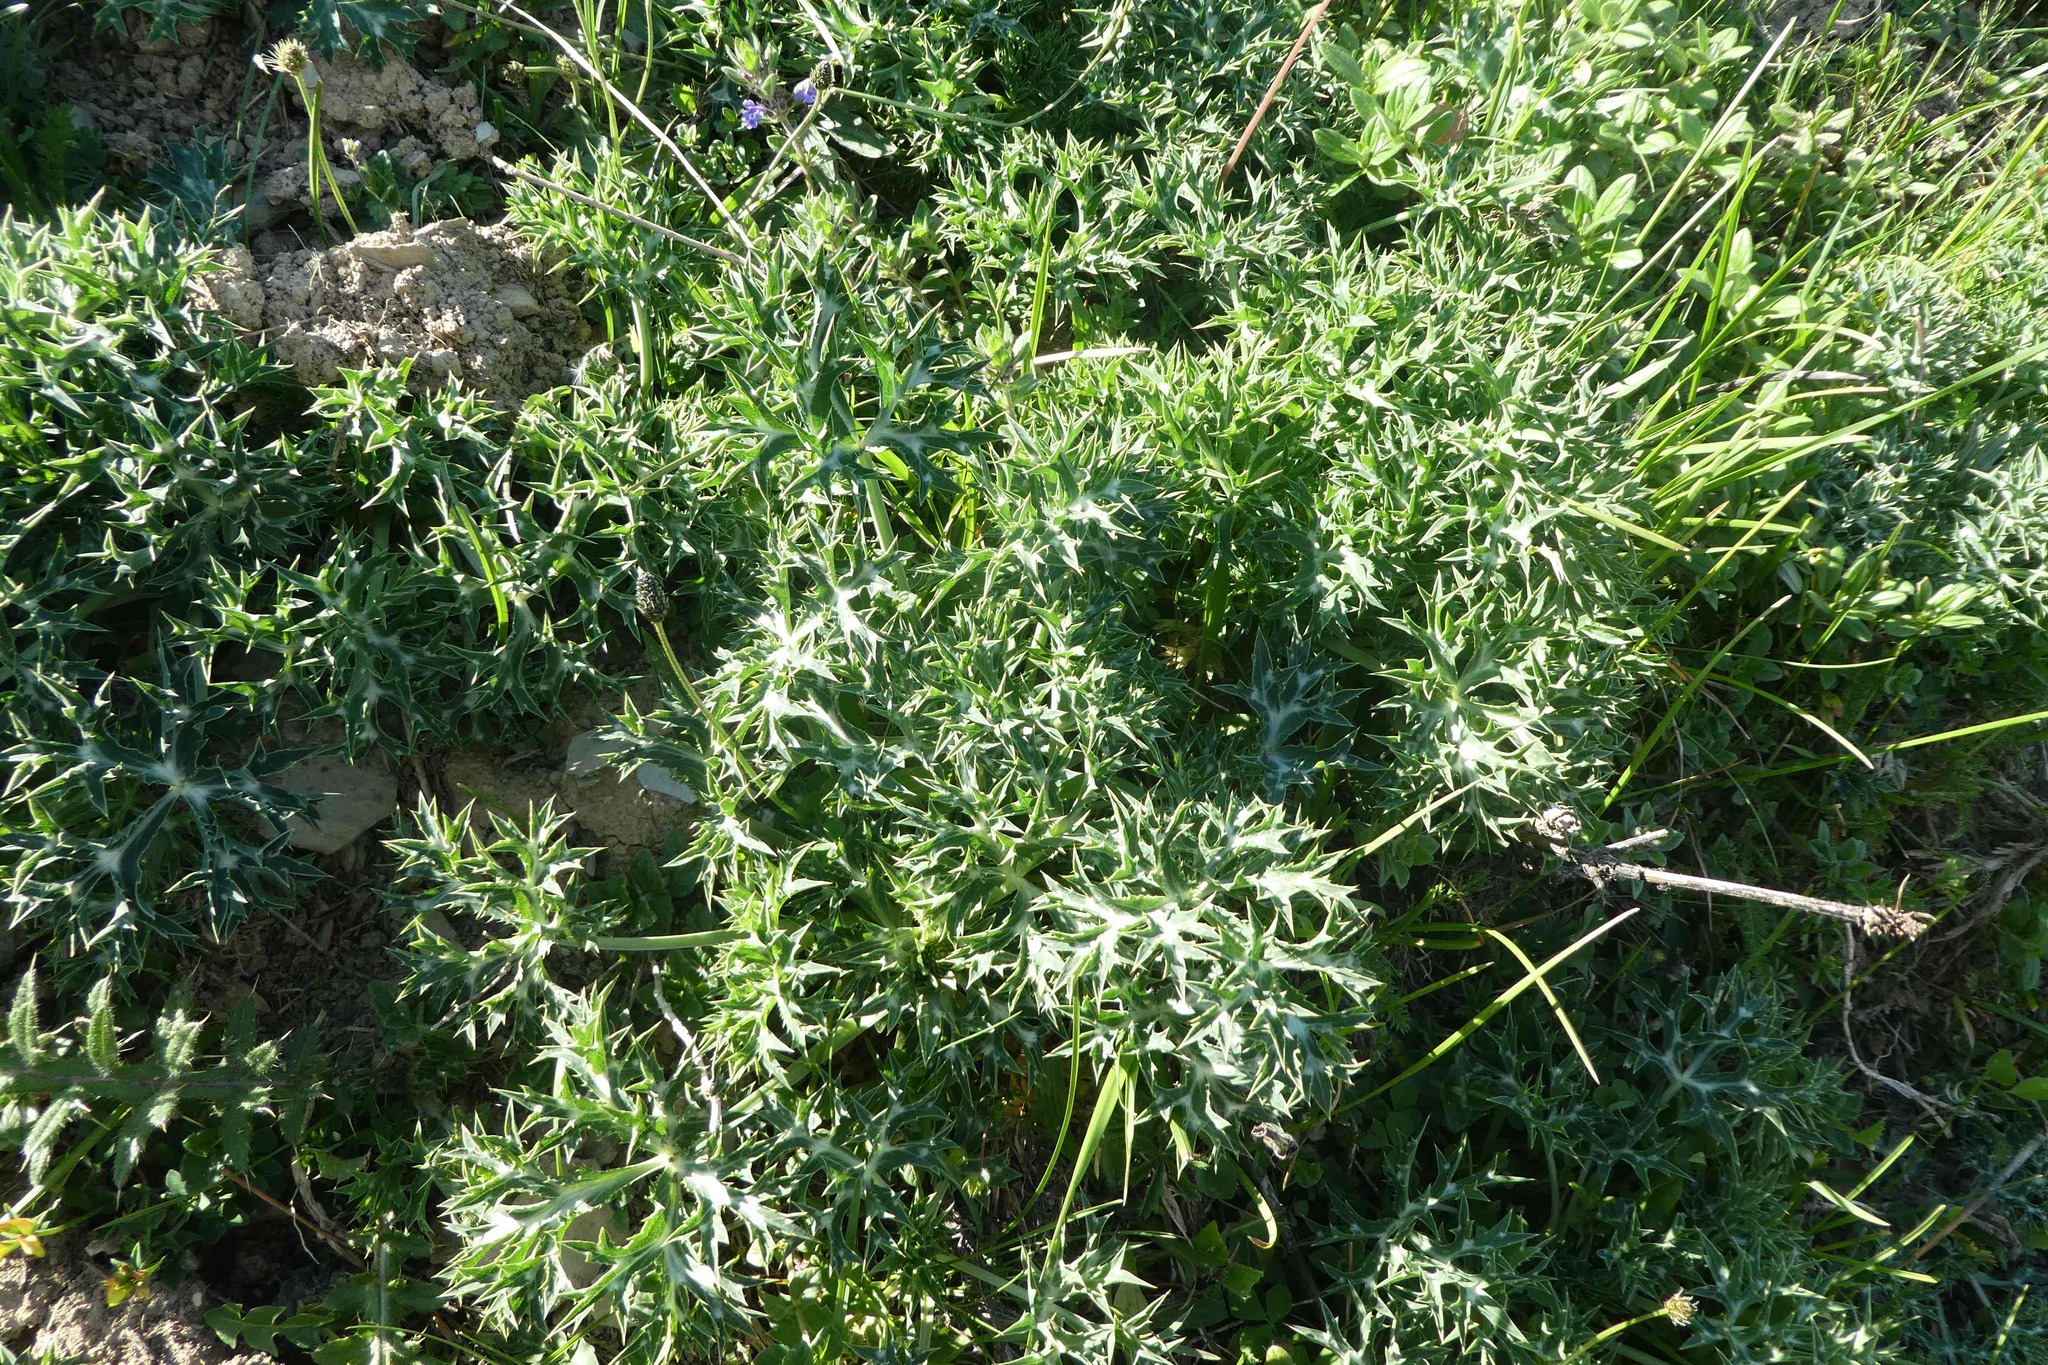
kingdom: Plantae
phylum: Tracheophyta
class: Magnoliopsida
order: Apiales
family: Apiaceae
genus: Eryngium
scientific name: Eryngium bourgatii
